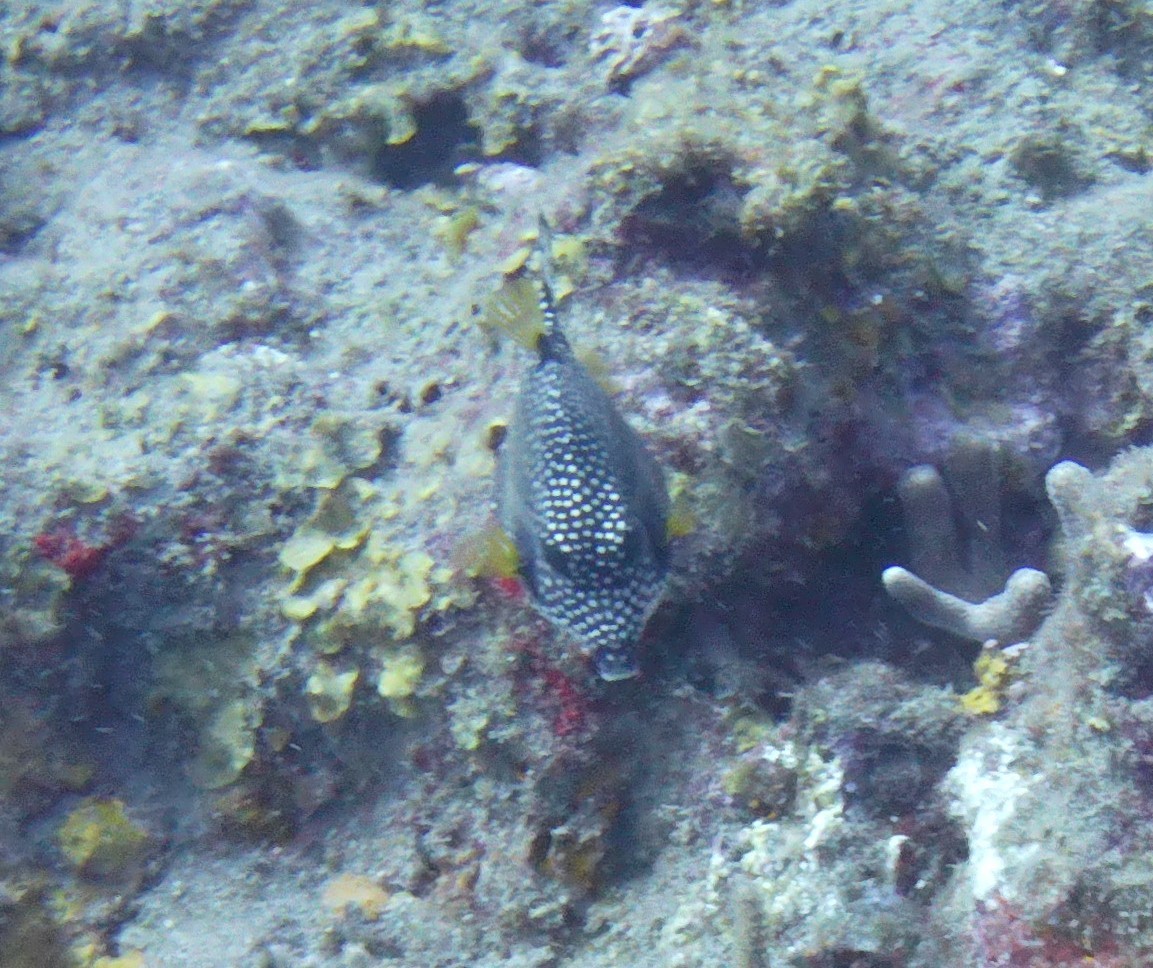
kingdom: Animalia
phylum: Chordata
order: Tetraodontiformes
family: Ostraciidae
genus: Lactophrys
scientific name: Lactophrys triqueter
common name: Smooth trunkfish
